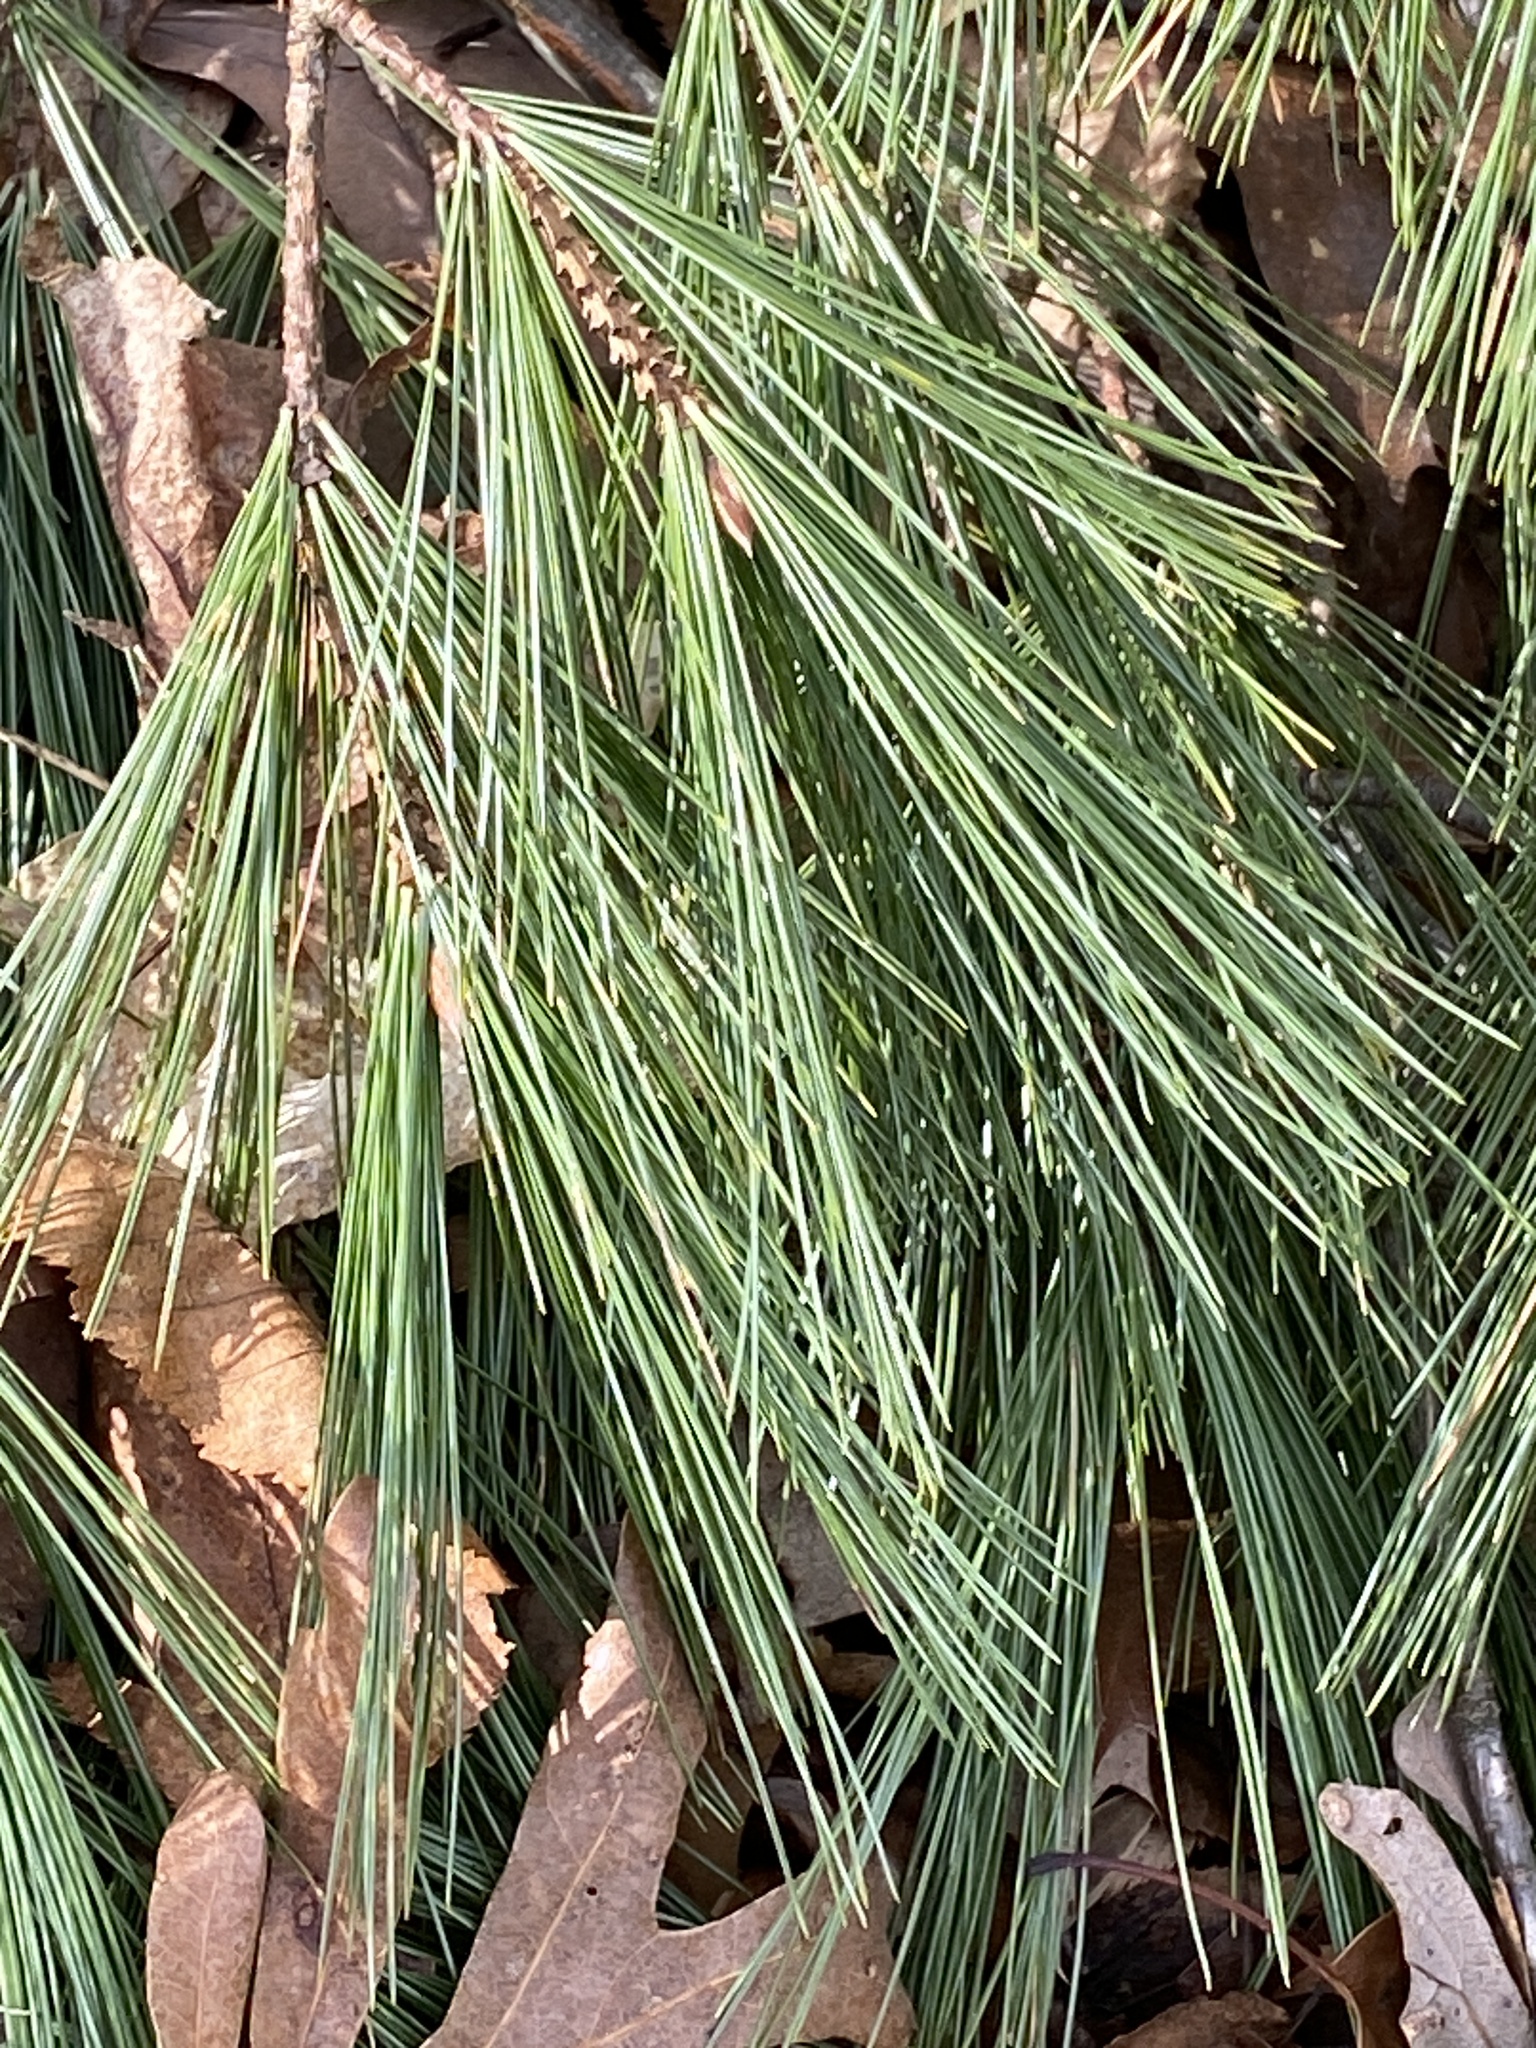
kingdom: Plantae
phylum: Tracheophyta
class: Pinopsida
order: Pinales
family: Pinaceae
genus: Pinus
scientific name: Pinus strobus
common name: Weymouth pine
